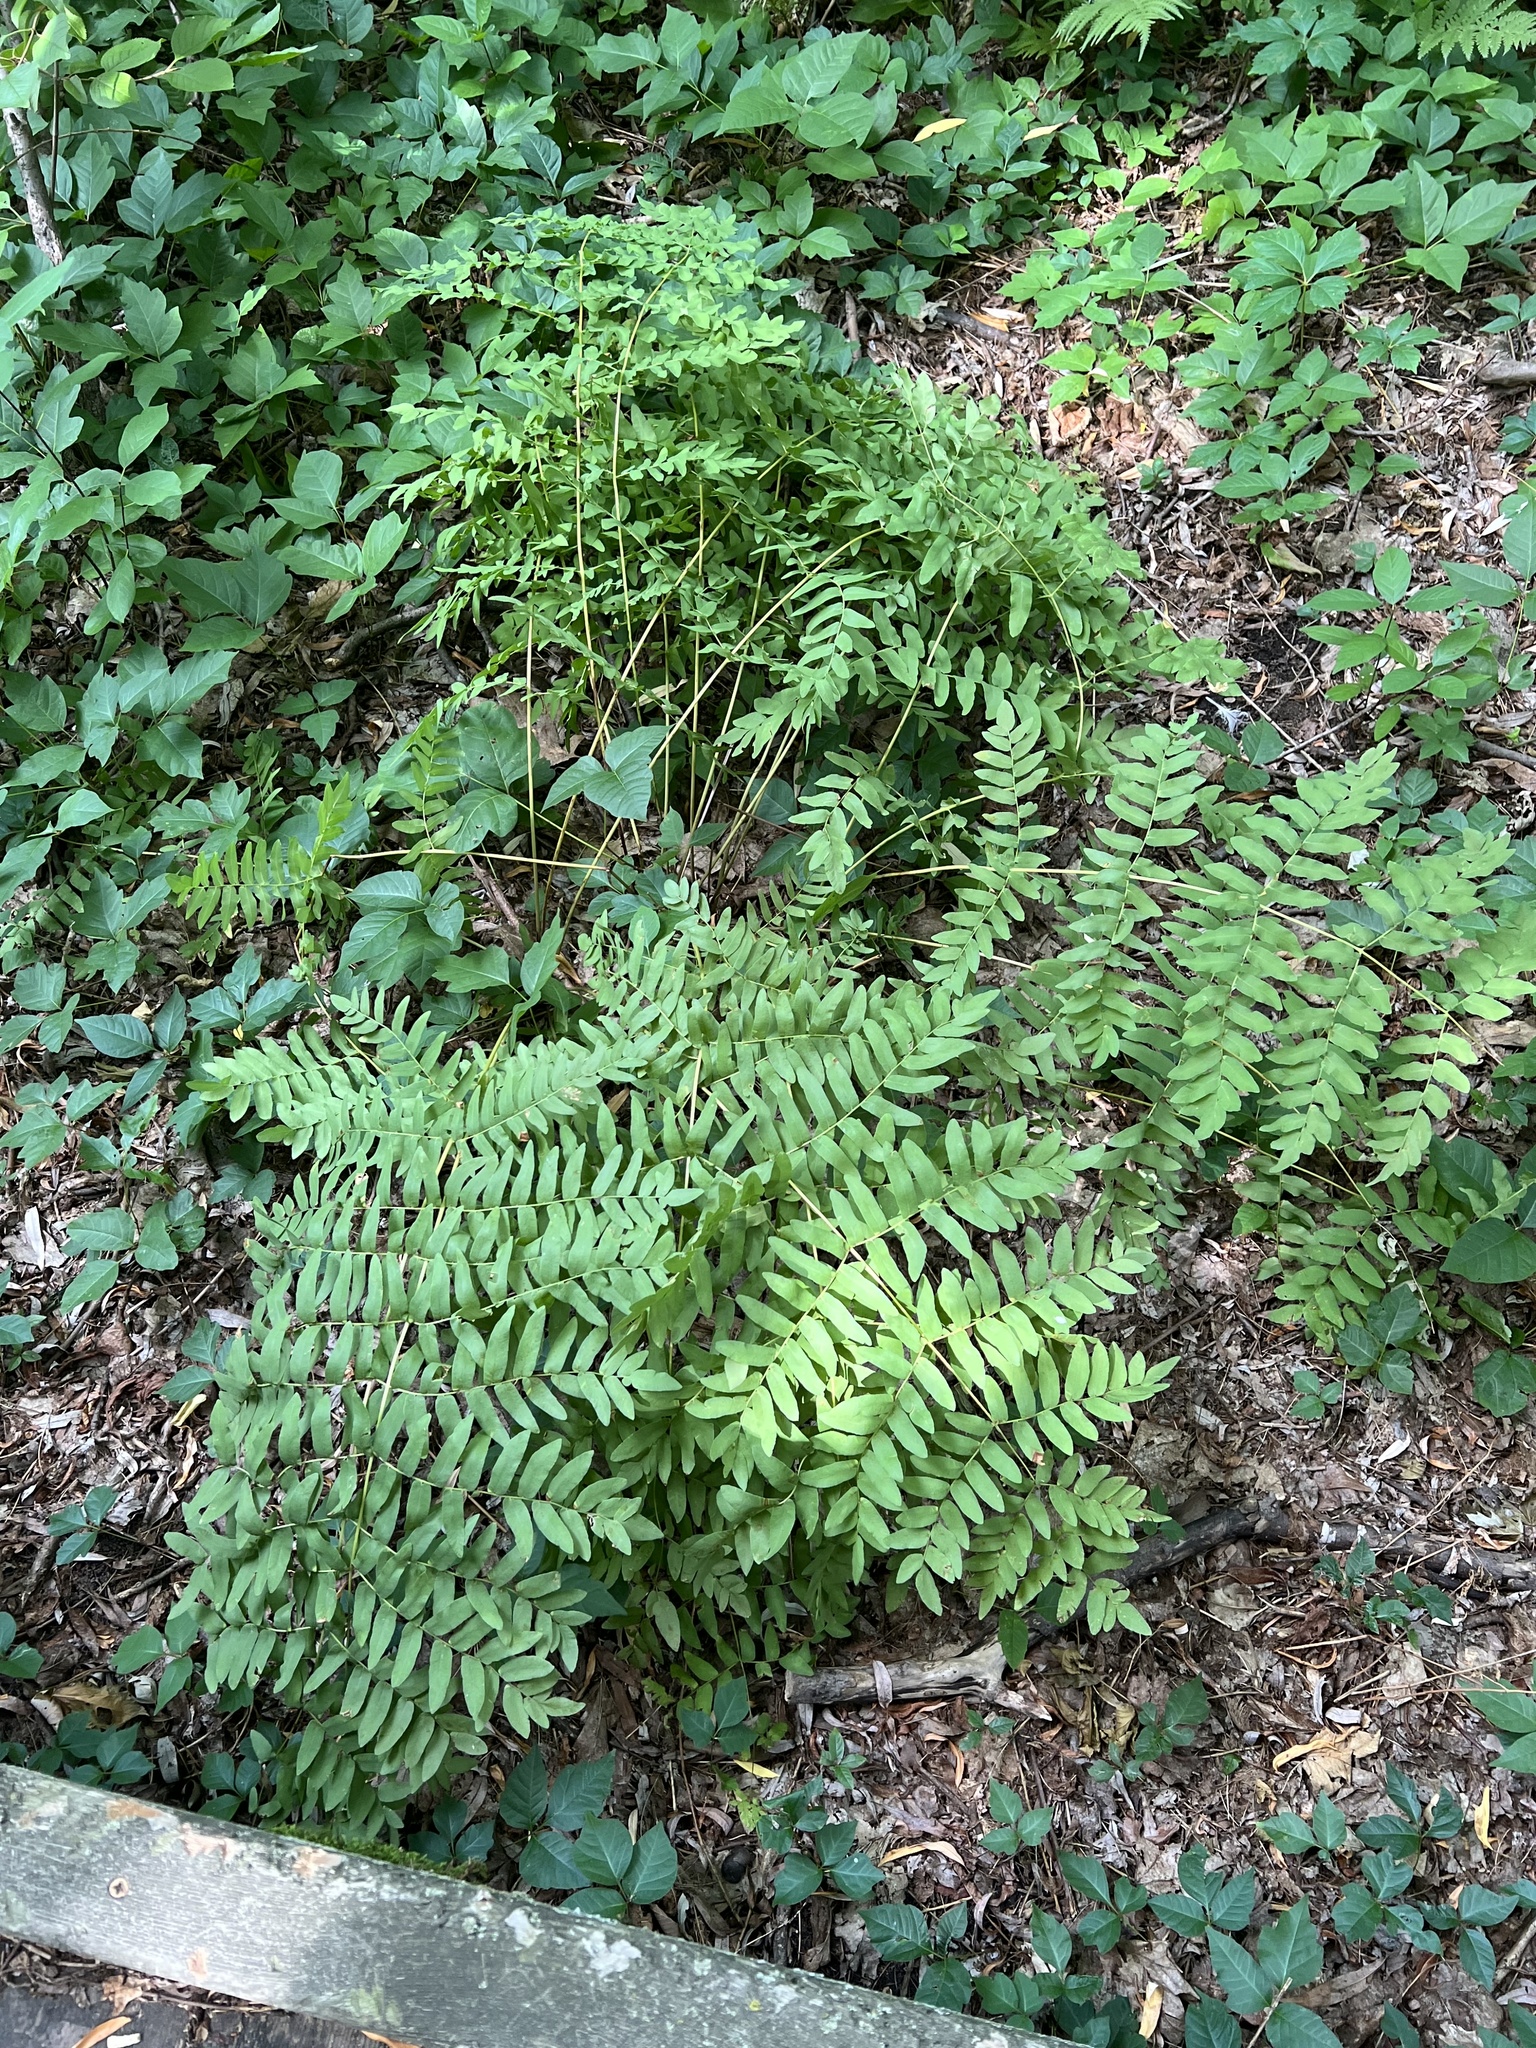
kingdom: Plantae
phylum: Tracheophyta
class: Polypodiopsida
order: Osmundales
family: Osmundaceae
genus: Osmunda
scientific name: Osmunda spectabilis
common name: American royal fern
